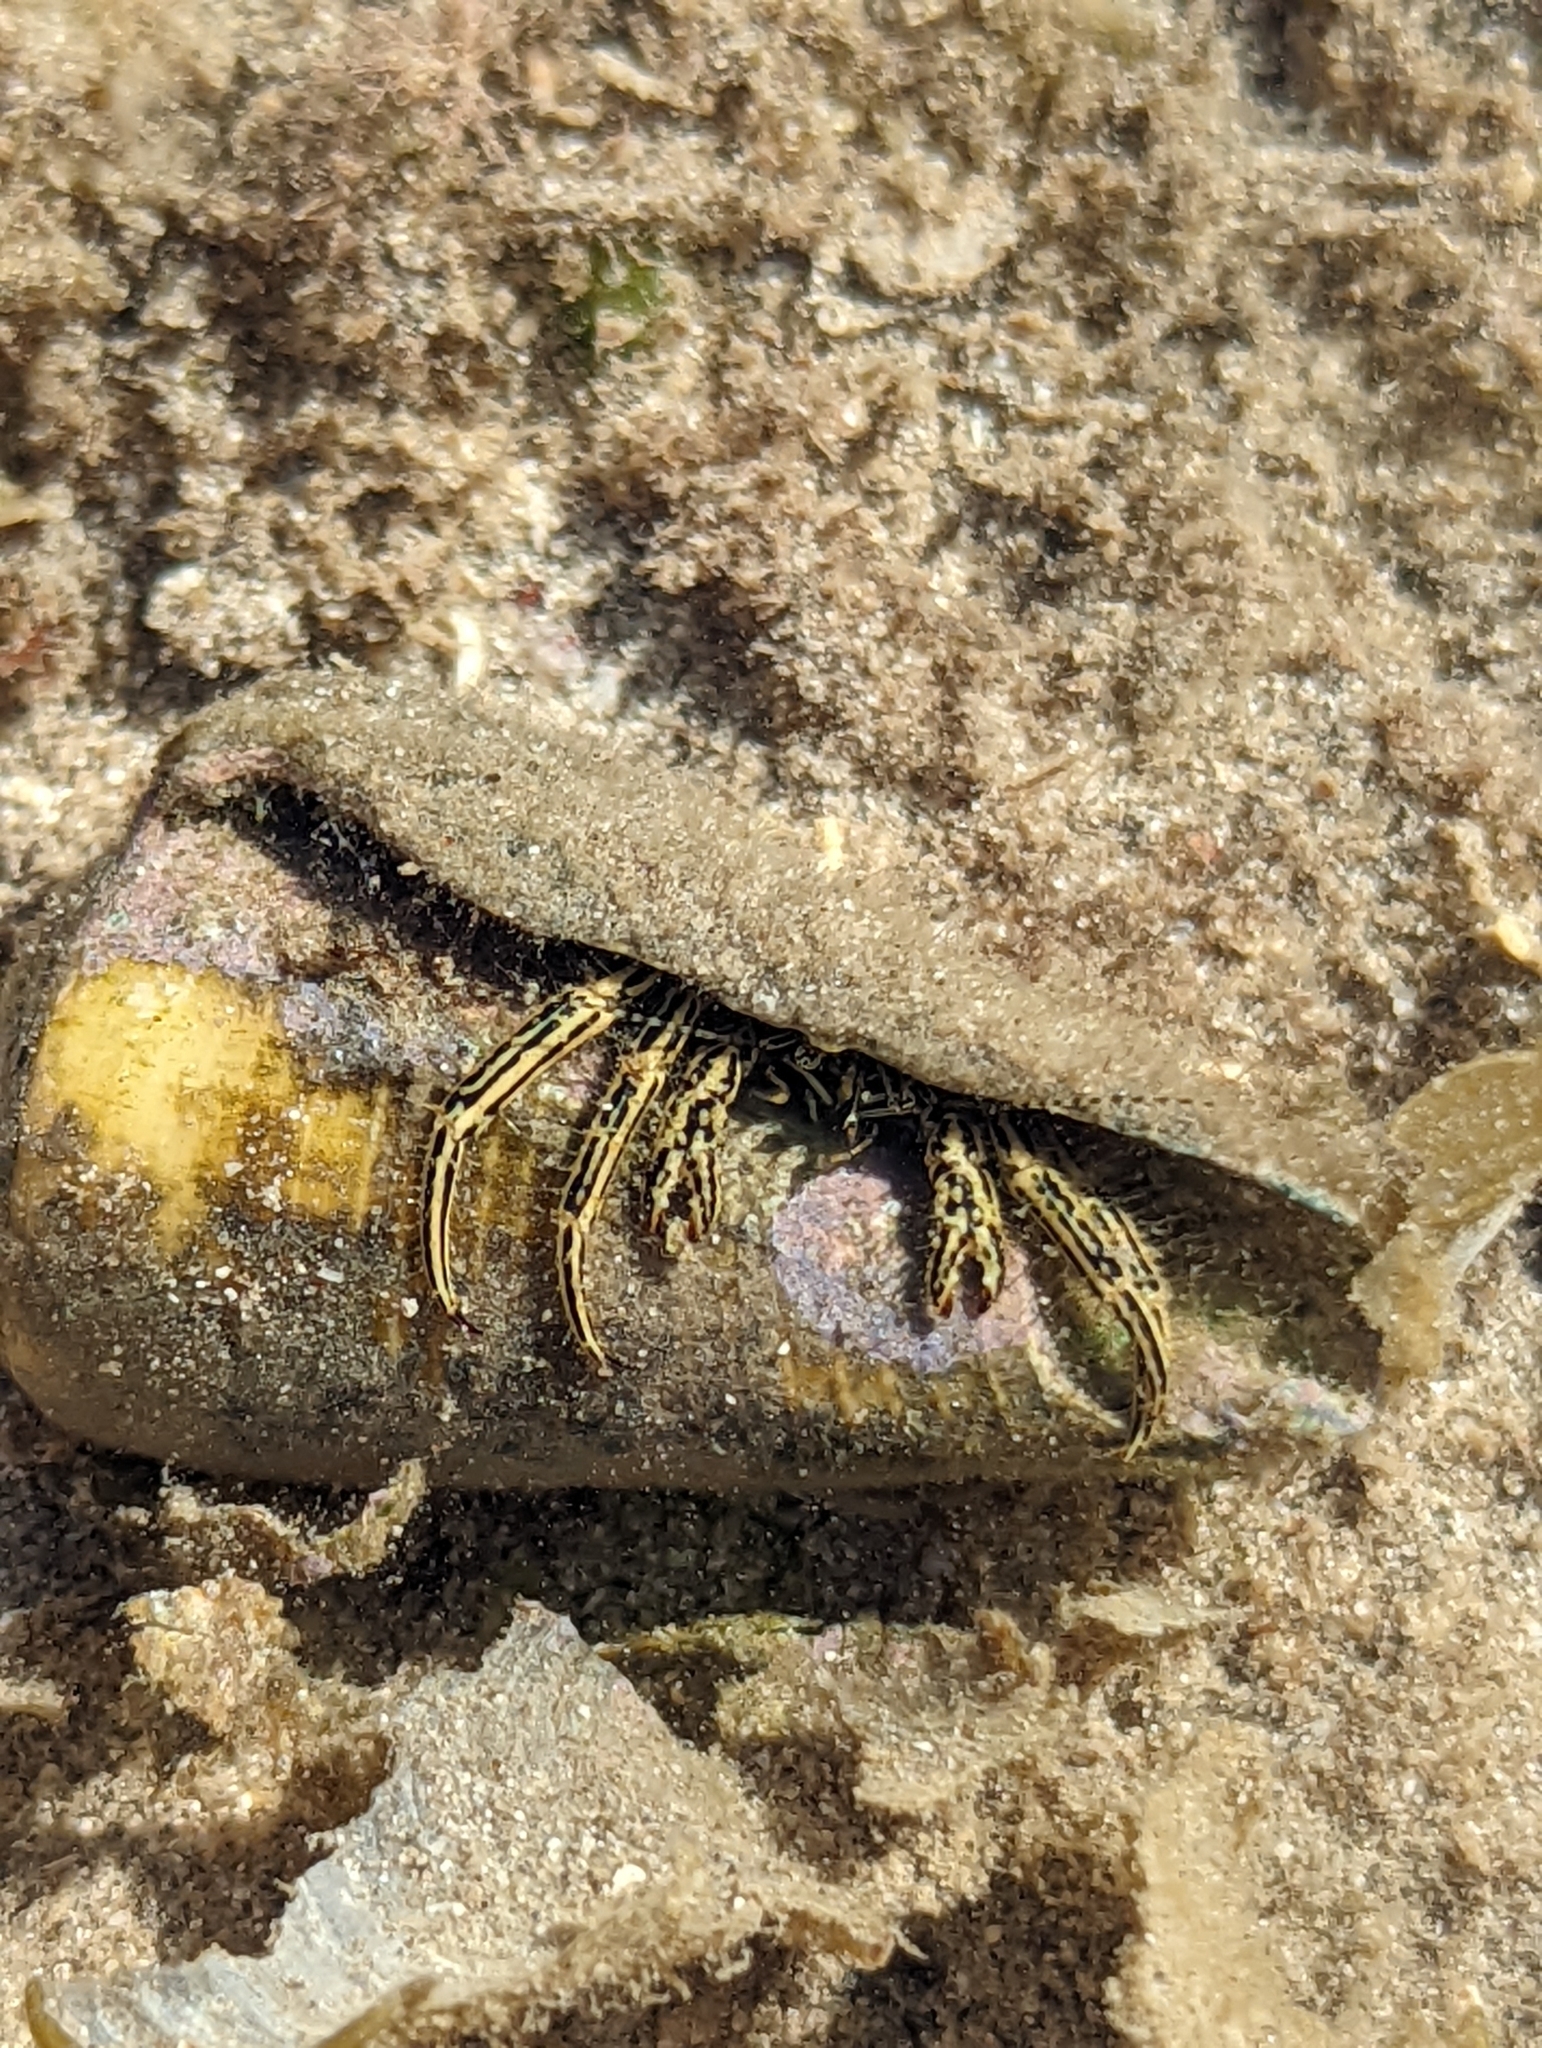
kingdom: Animalia
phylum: Arthropoda
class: Malacostraca
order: Decapoda
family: Diogenidae
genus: Clibanarius
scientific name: Clibanarius eurysternus
